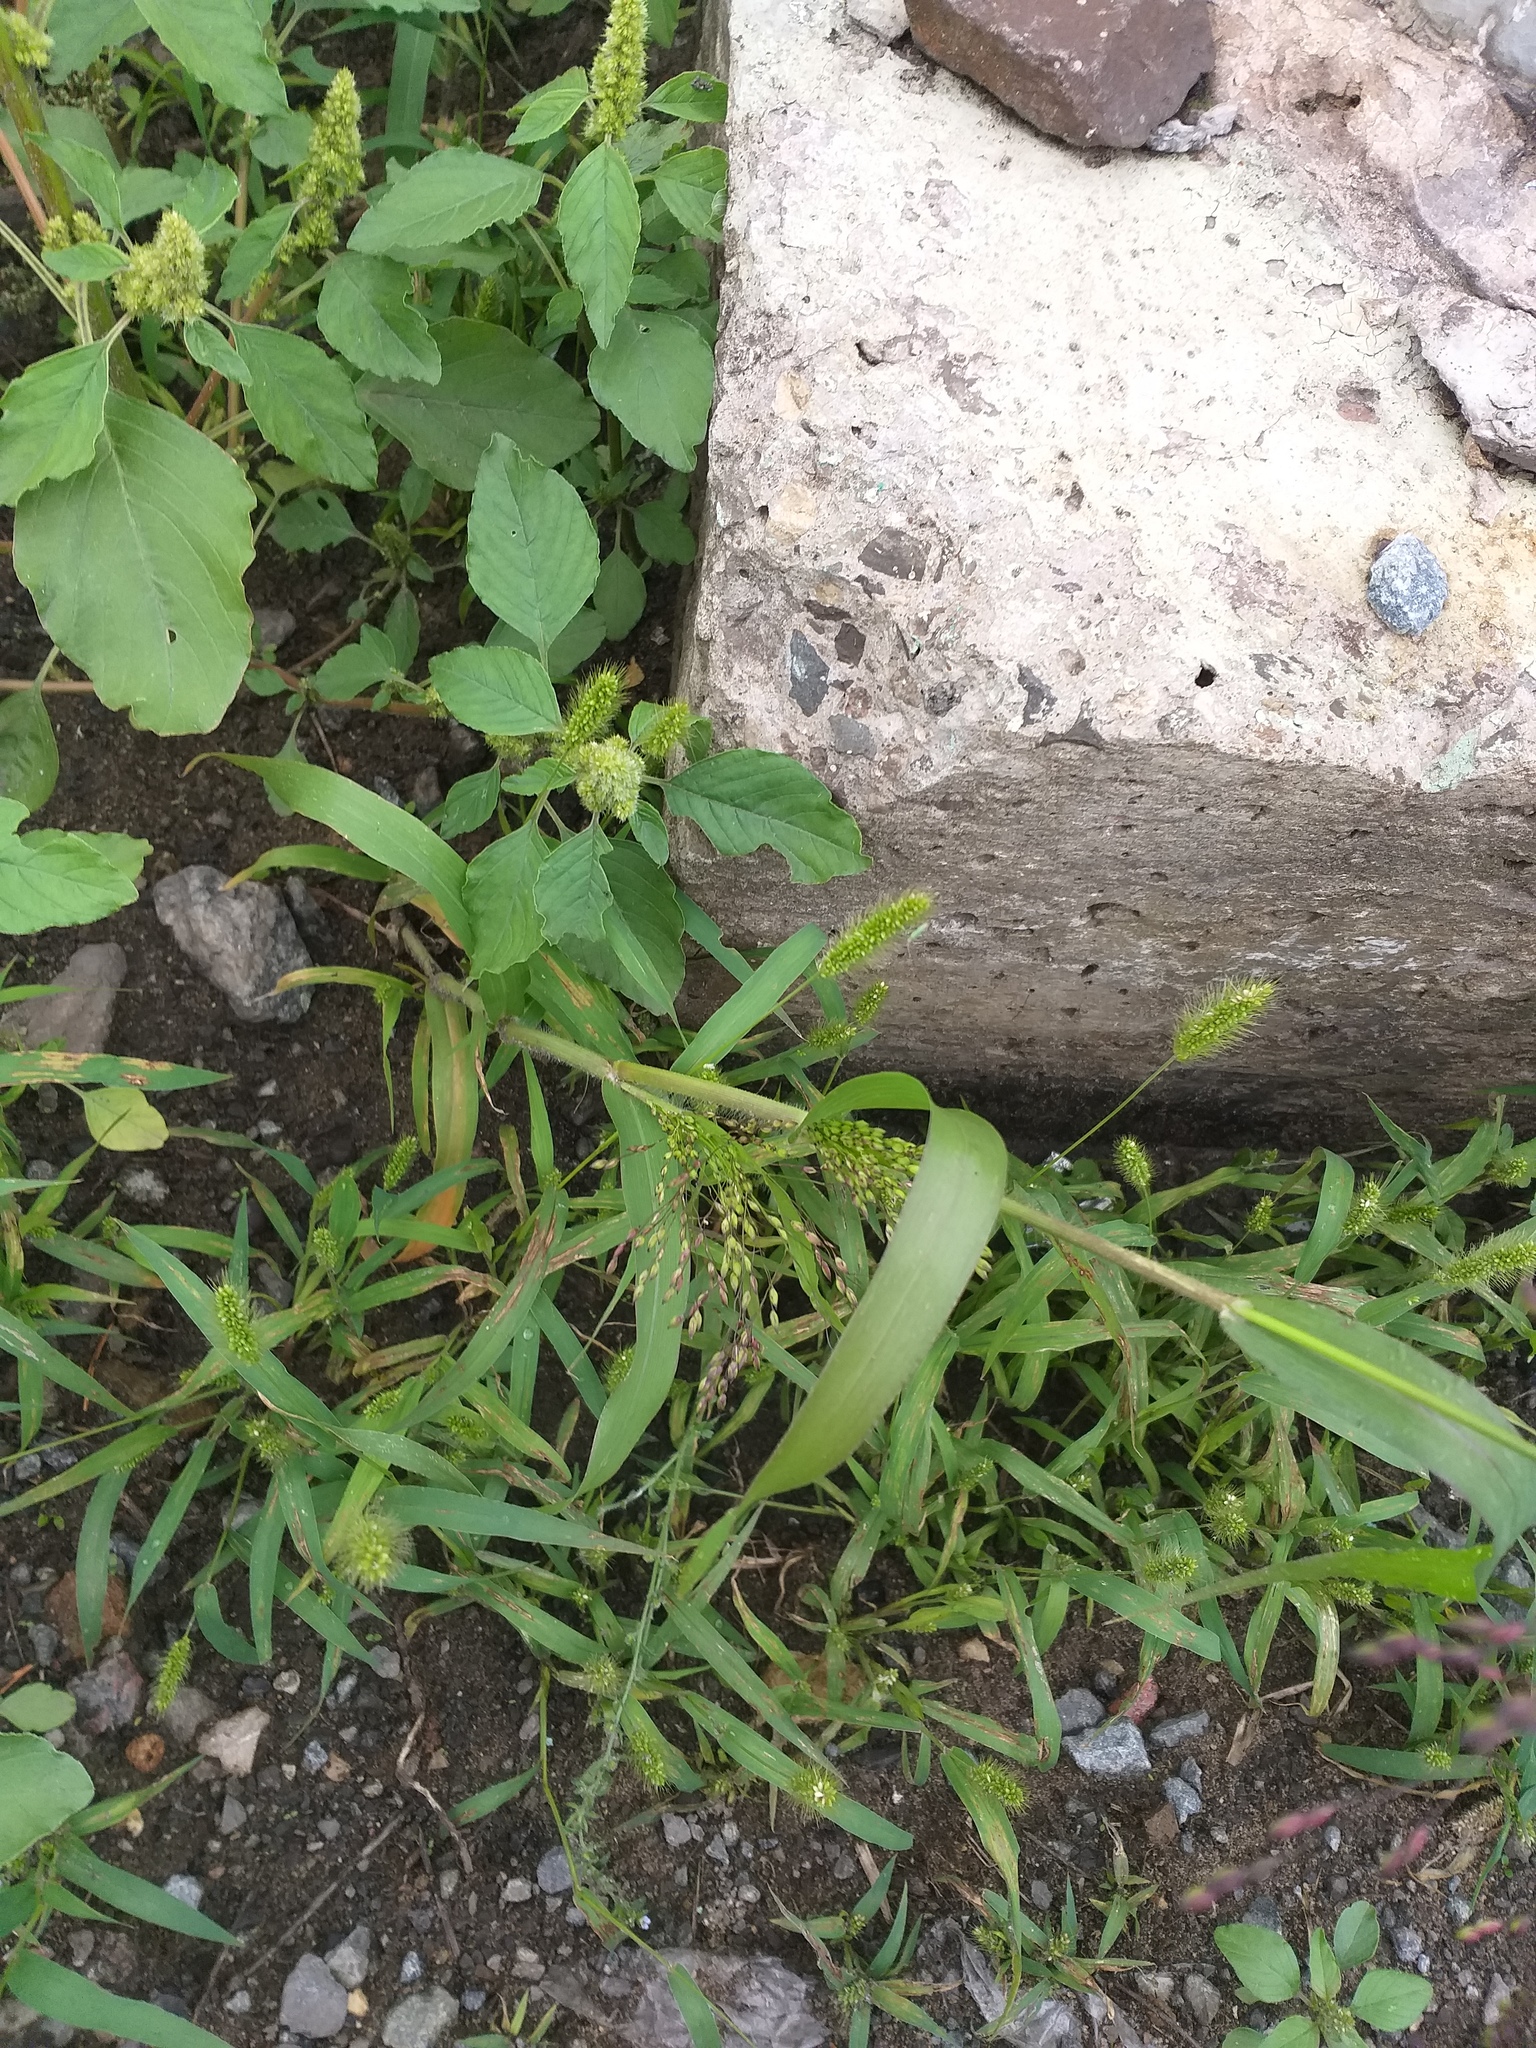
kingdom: Plantae
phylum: Tracheophyta
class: Liliopsida
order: Poales
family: Poaceae
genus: Panicum
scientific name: Panicum miliaceum
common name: Common millet
